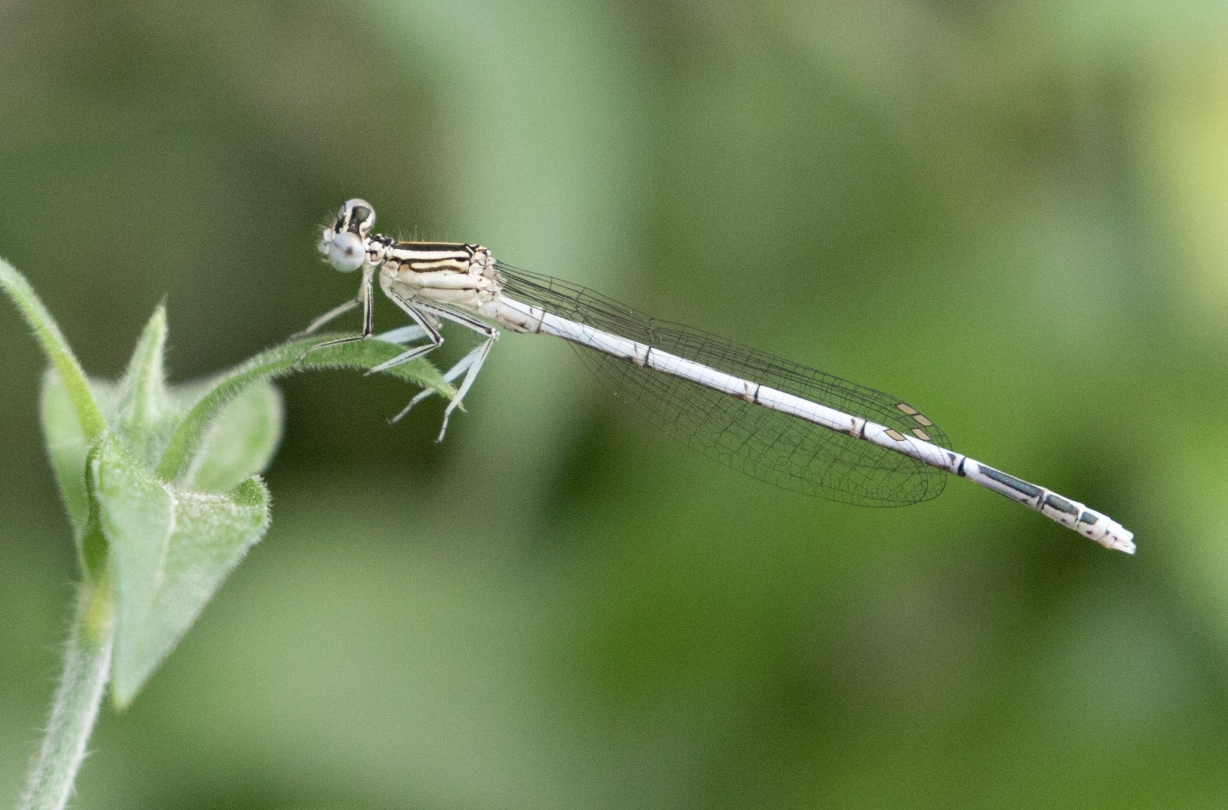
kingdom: Animalia
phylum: Arthropoda
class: Insecta
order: Odonata
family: Platycnemididae
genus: Platycnemis
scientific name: Platycnemis pennipes
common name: White-legged damselfly
